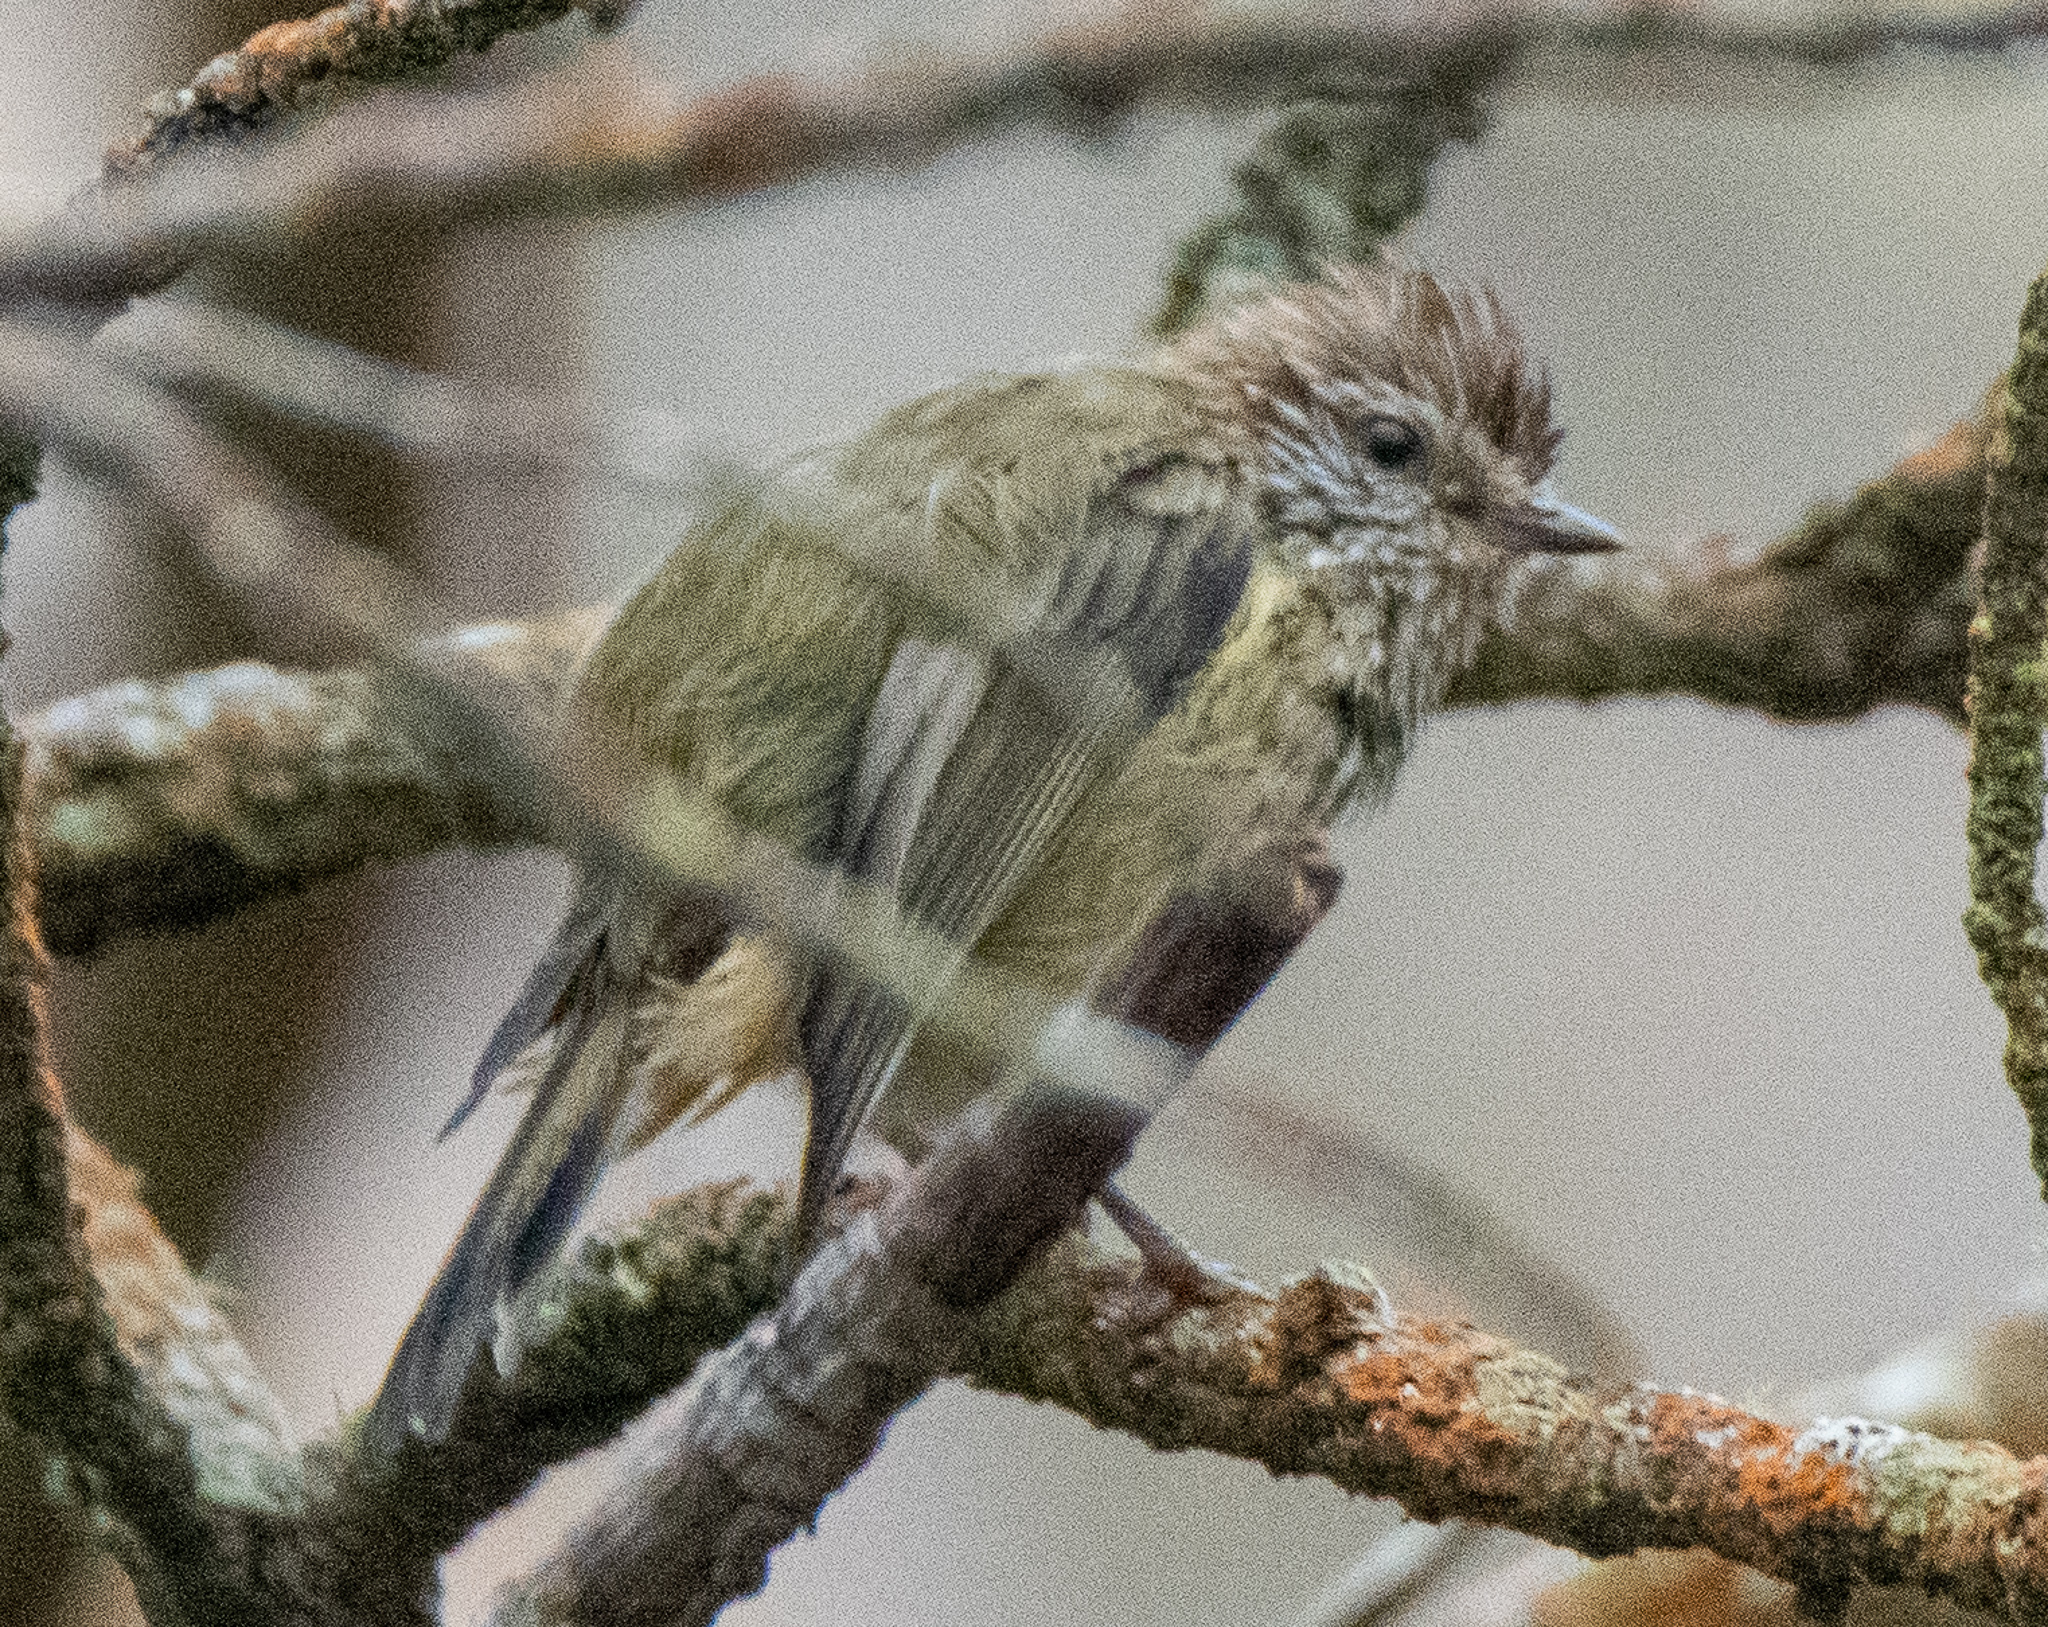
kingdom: Animalia
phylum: Chordata
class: Aves
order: Passeriformes
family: Acanthizidae
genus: Acanthiza
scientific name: Acanthiza lineata
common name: Striated thornbill
